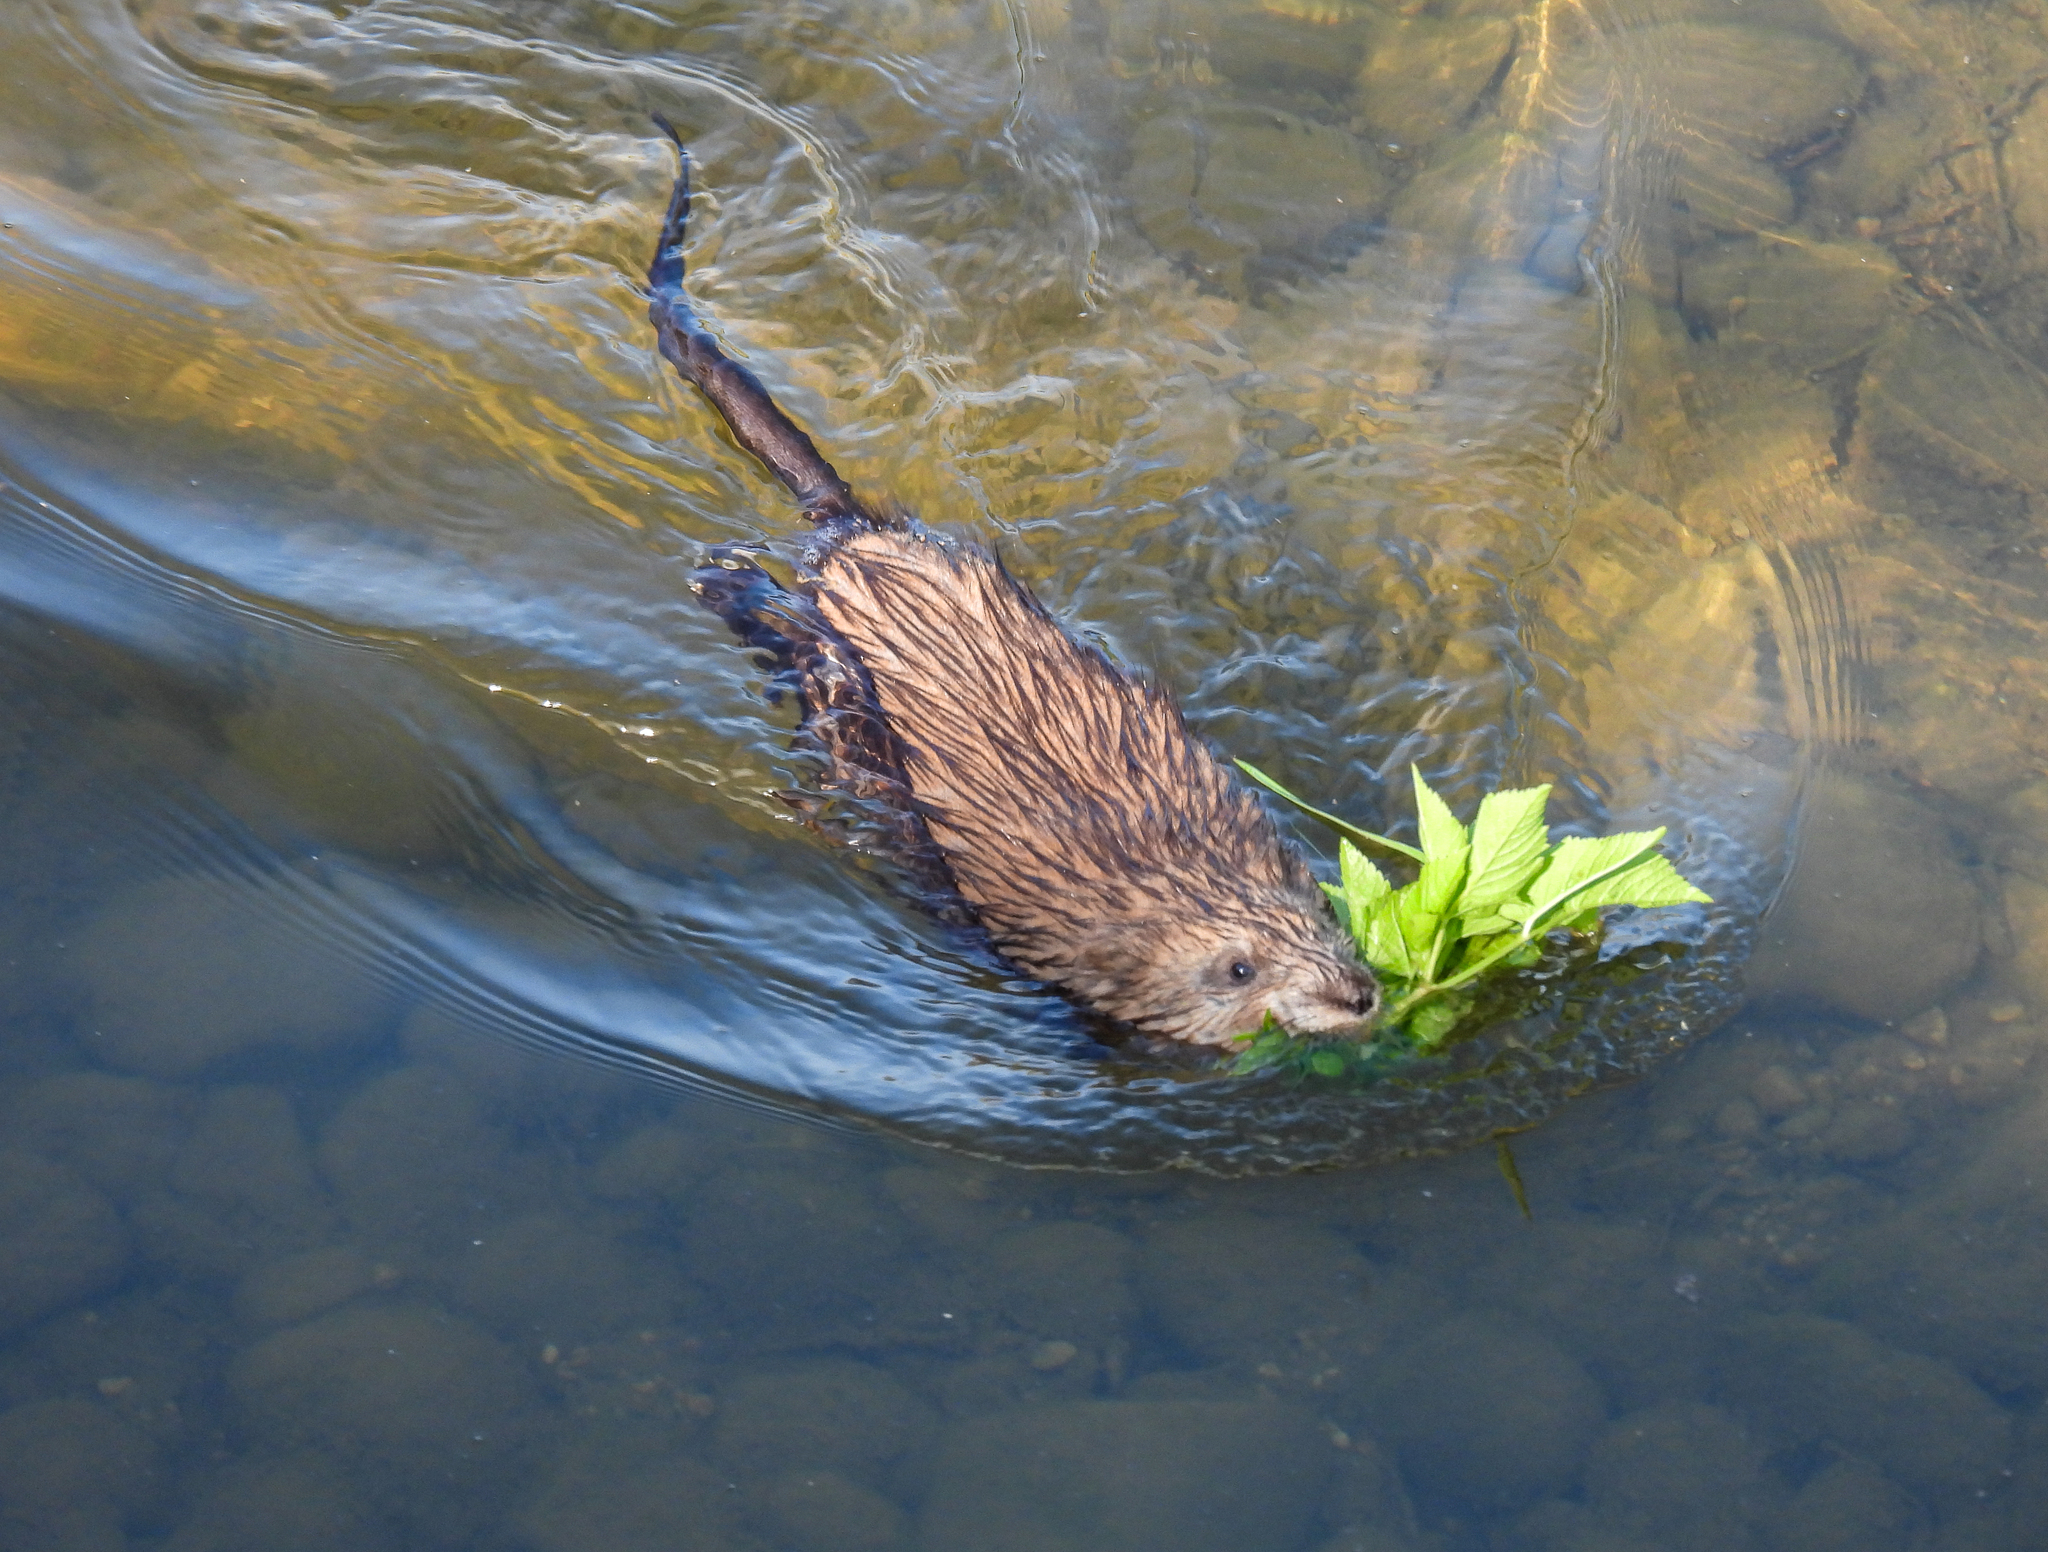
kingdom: Animalia
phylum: Chordata
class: Mammalia
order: Rodentia
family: Cricetidae
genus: Ondatra
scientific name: Ondatra zibethicus
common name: Muskrat
